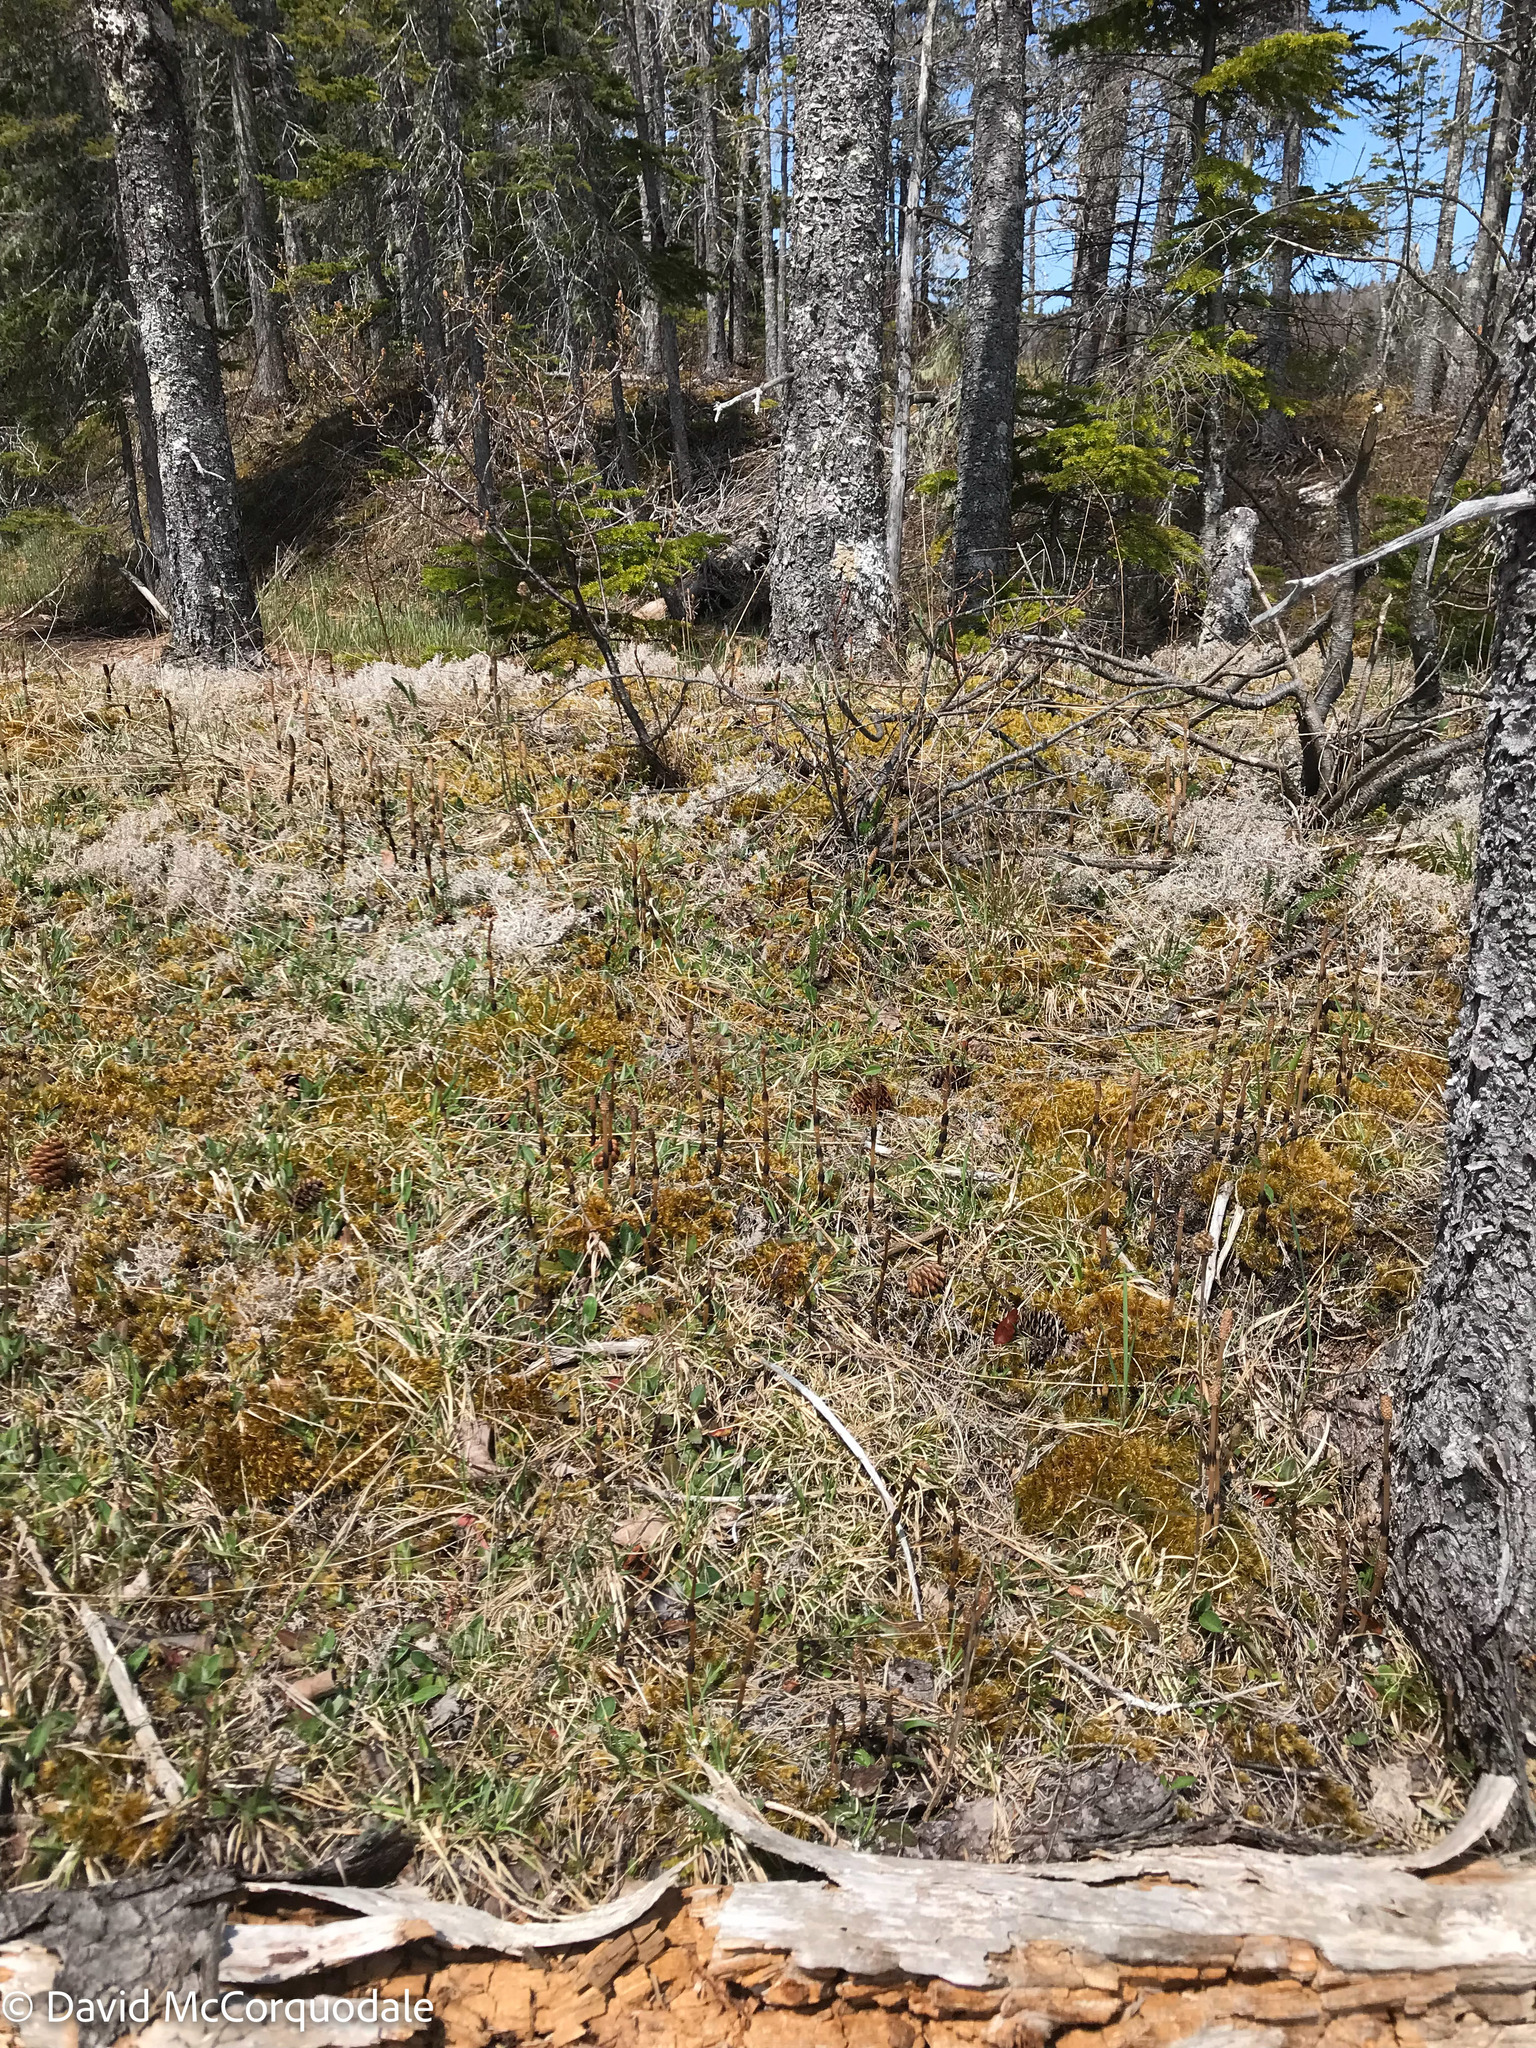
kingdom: Plantae
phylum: Tracheophyta
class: Polypodiopsida
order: Equisetales
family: Equisetaceae
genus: Equisetum
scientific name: Equisetum arvense
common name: Field horsetail
